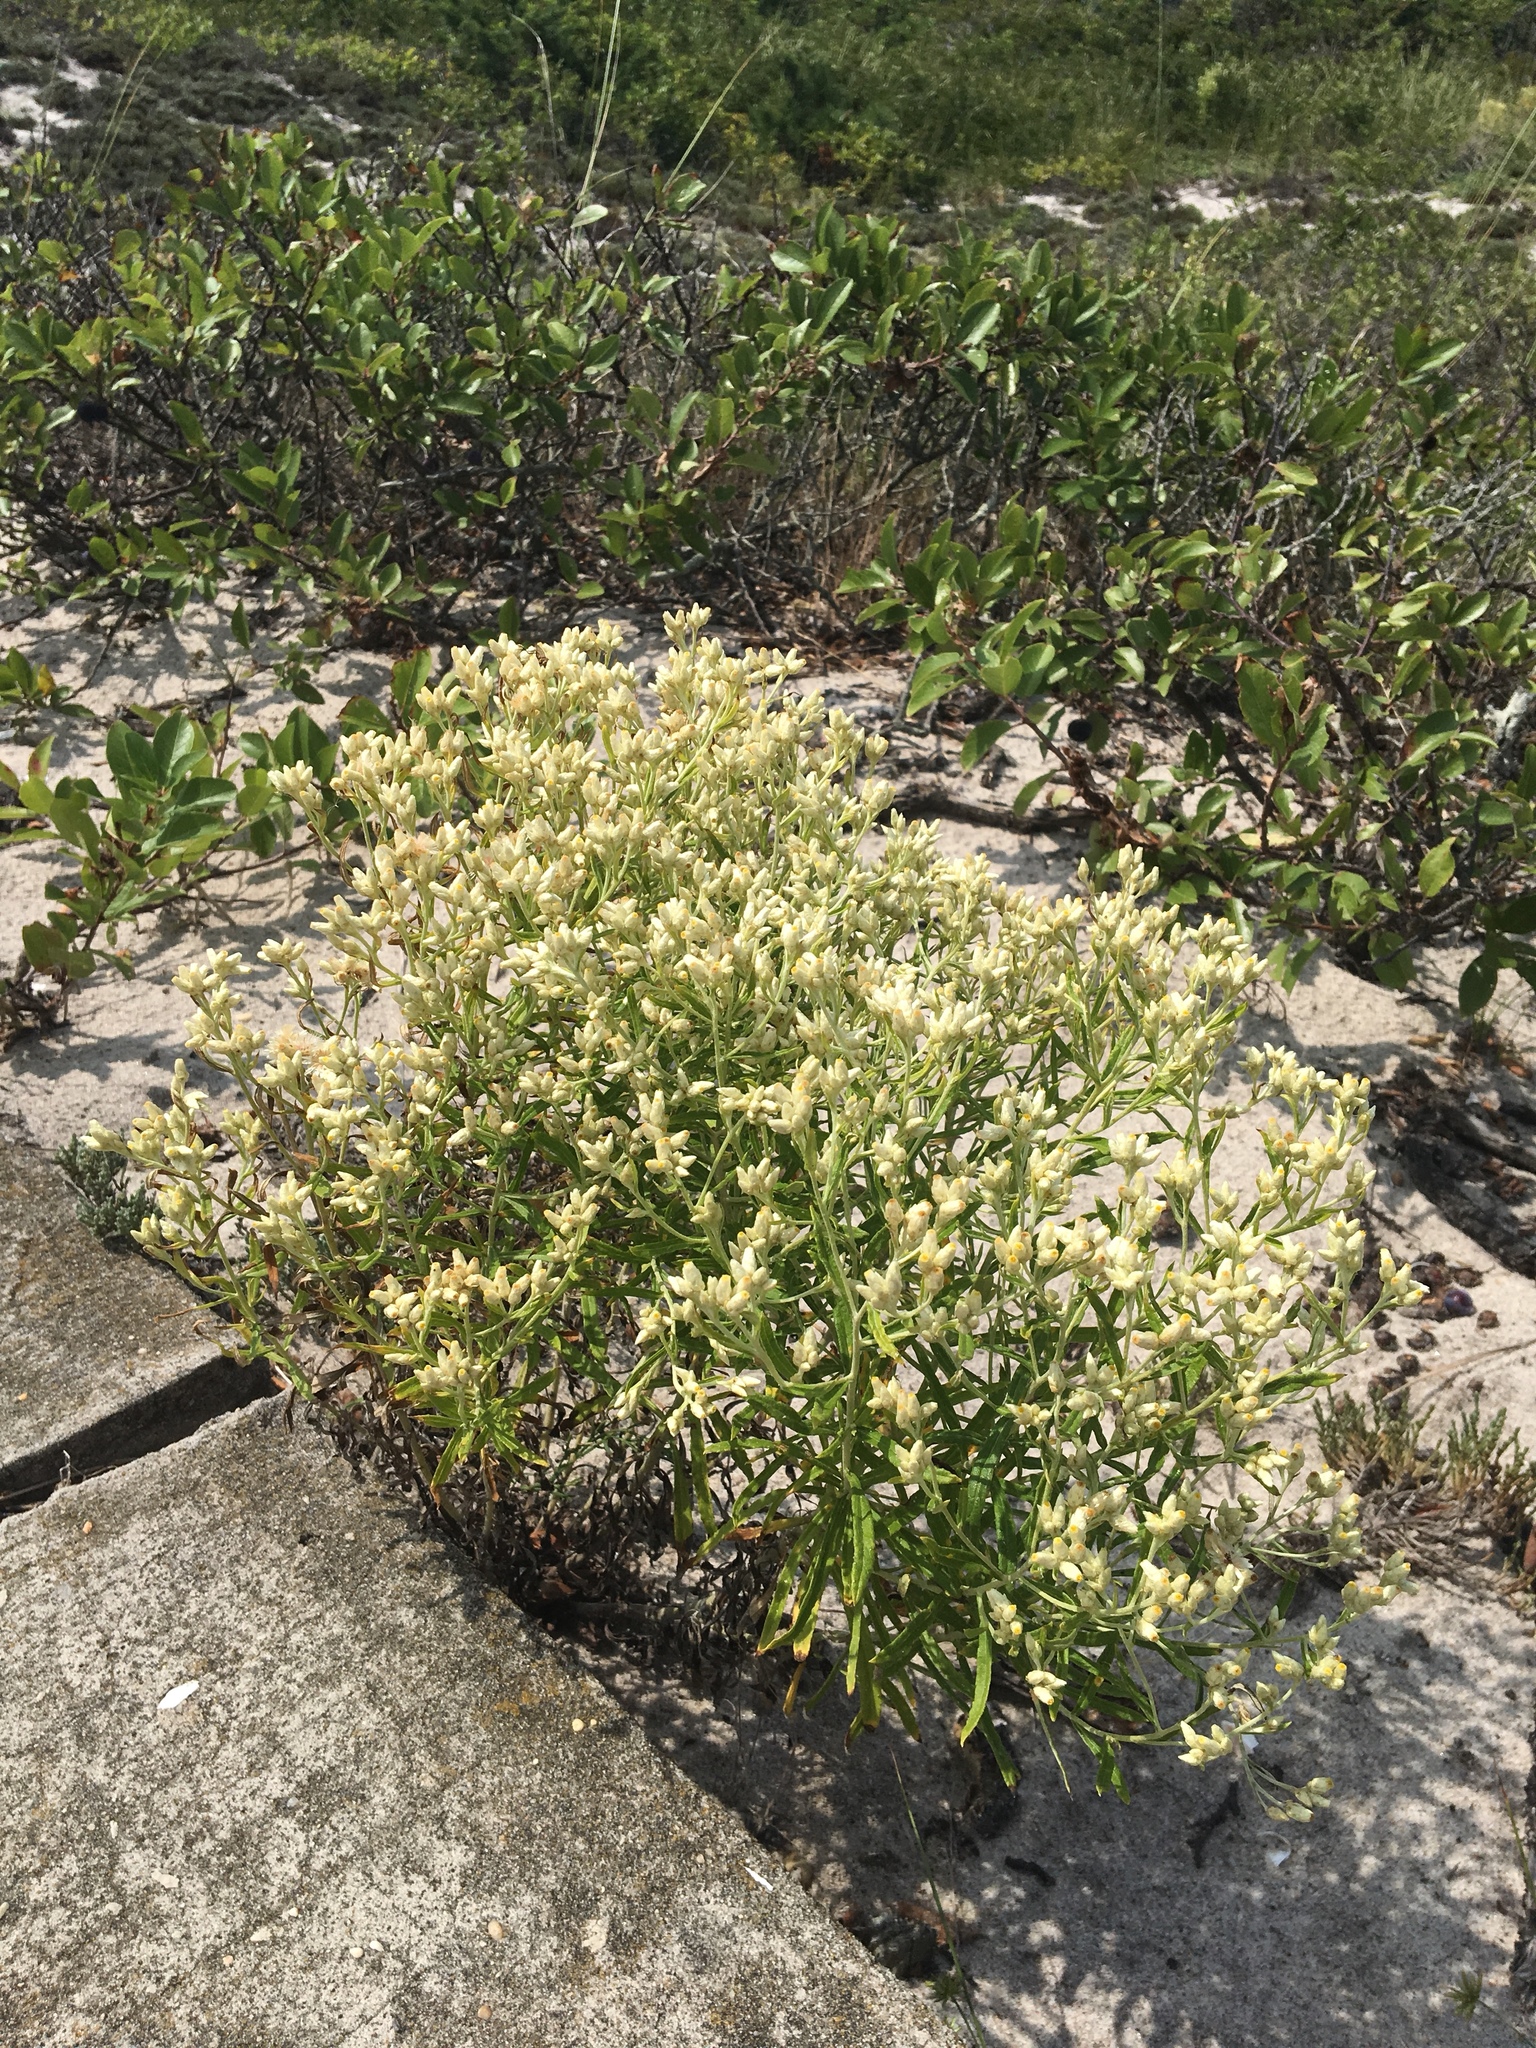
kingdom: Plantae
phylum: Tracheophyta
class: Magnoliopsida
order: Asterales
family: Asteraceae
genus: Baccharis
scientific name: Baccharis halimifolia
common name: Eastern baccharis
